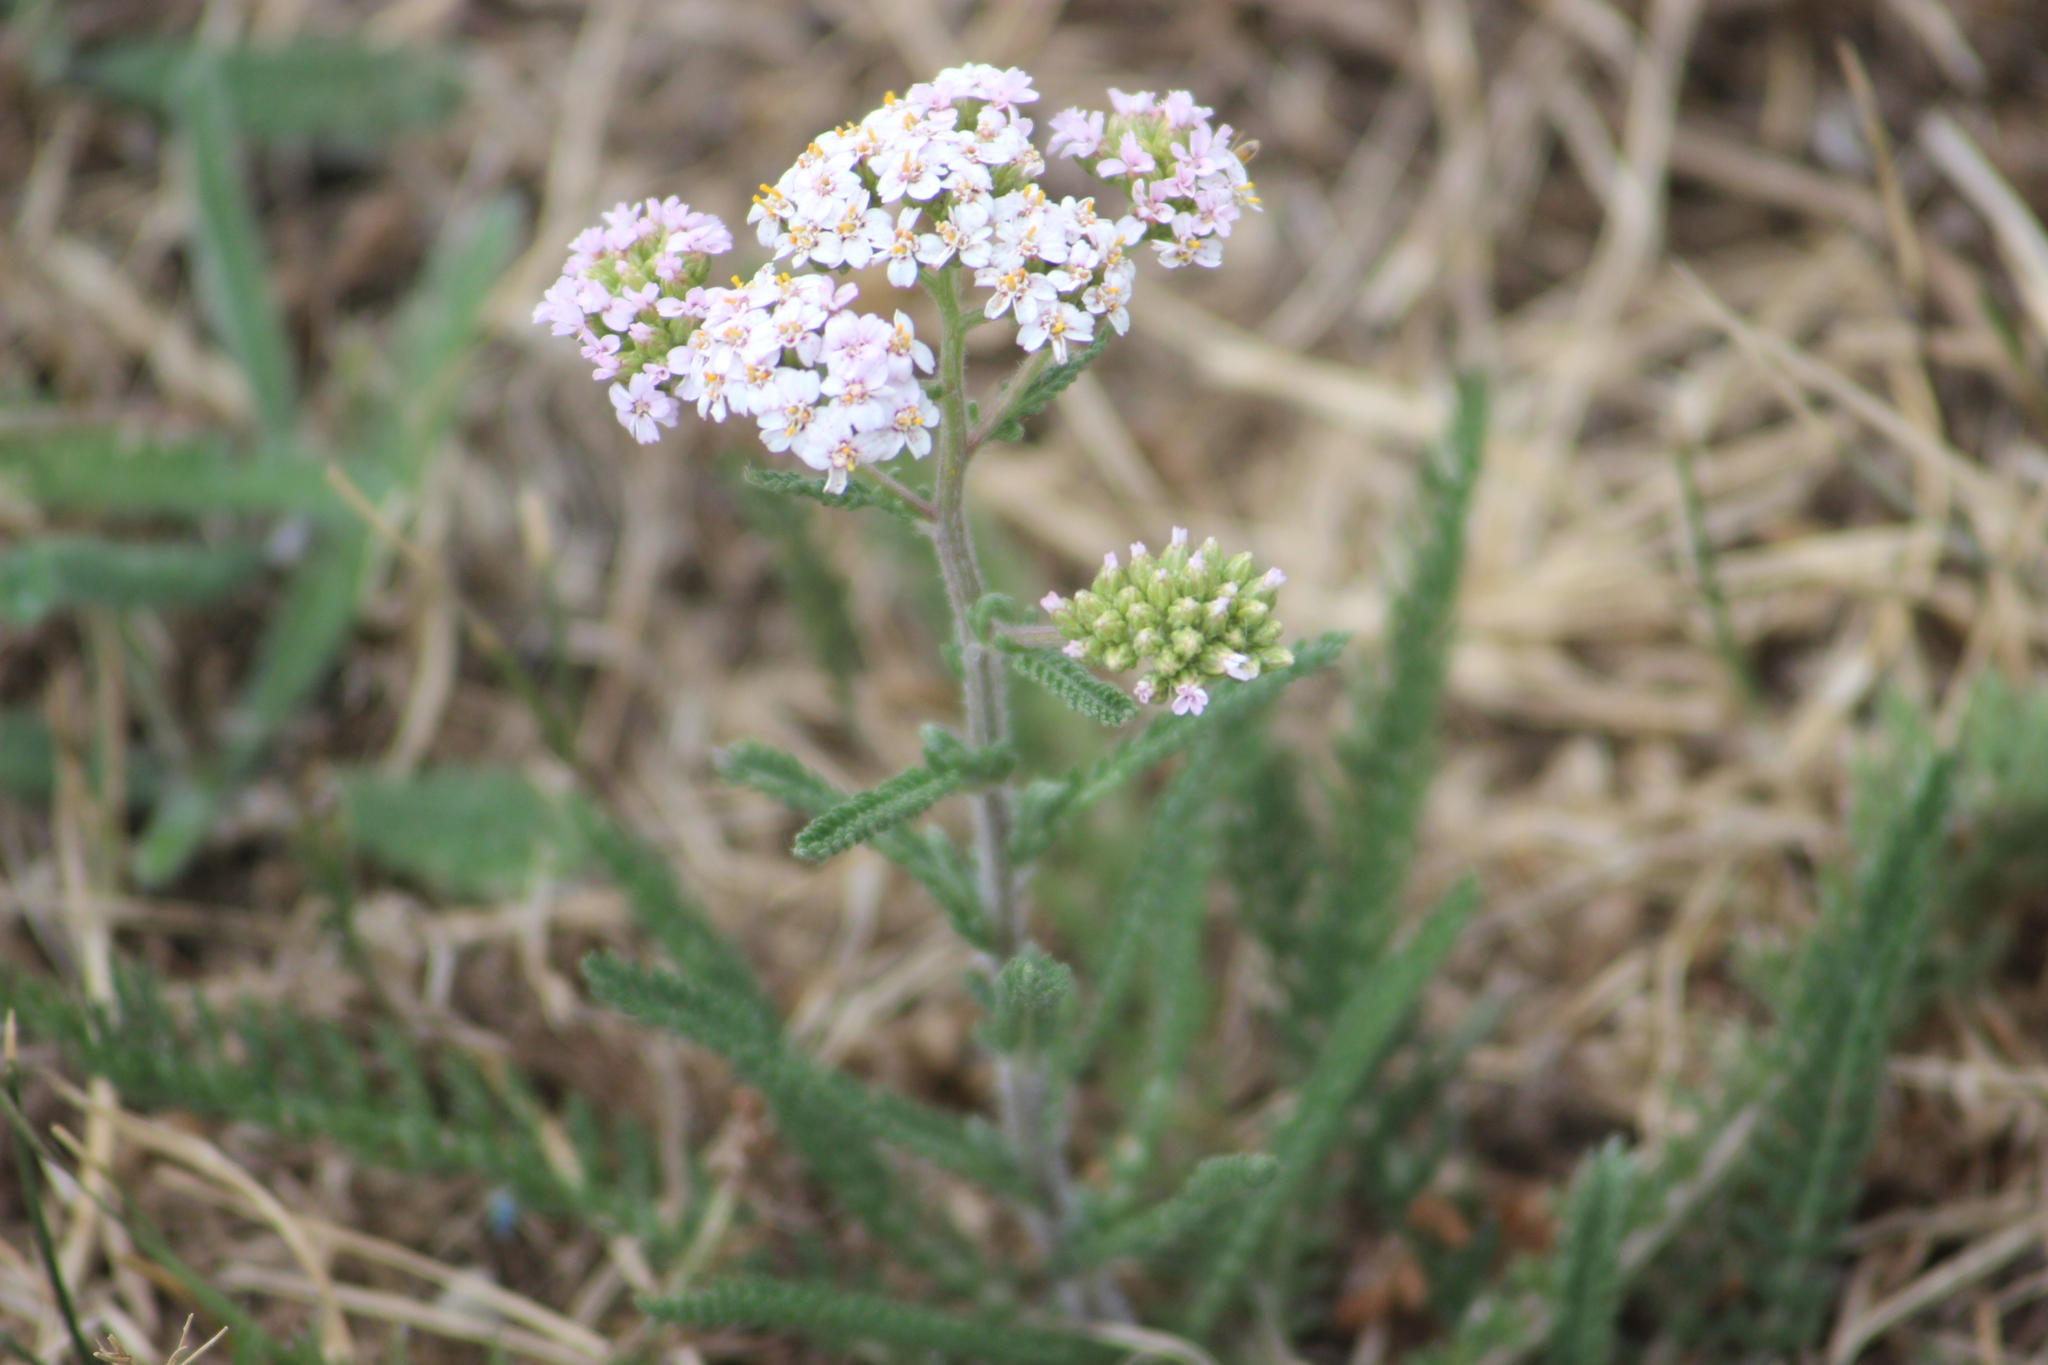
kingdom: Plantae
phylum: Tracheophyta
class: Magnoliopsida
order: Asterales
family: Asteraceae
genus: Achillea
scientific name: Achillea millefolium
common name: Yarrow
